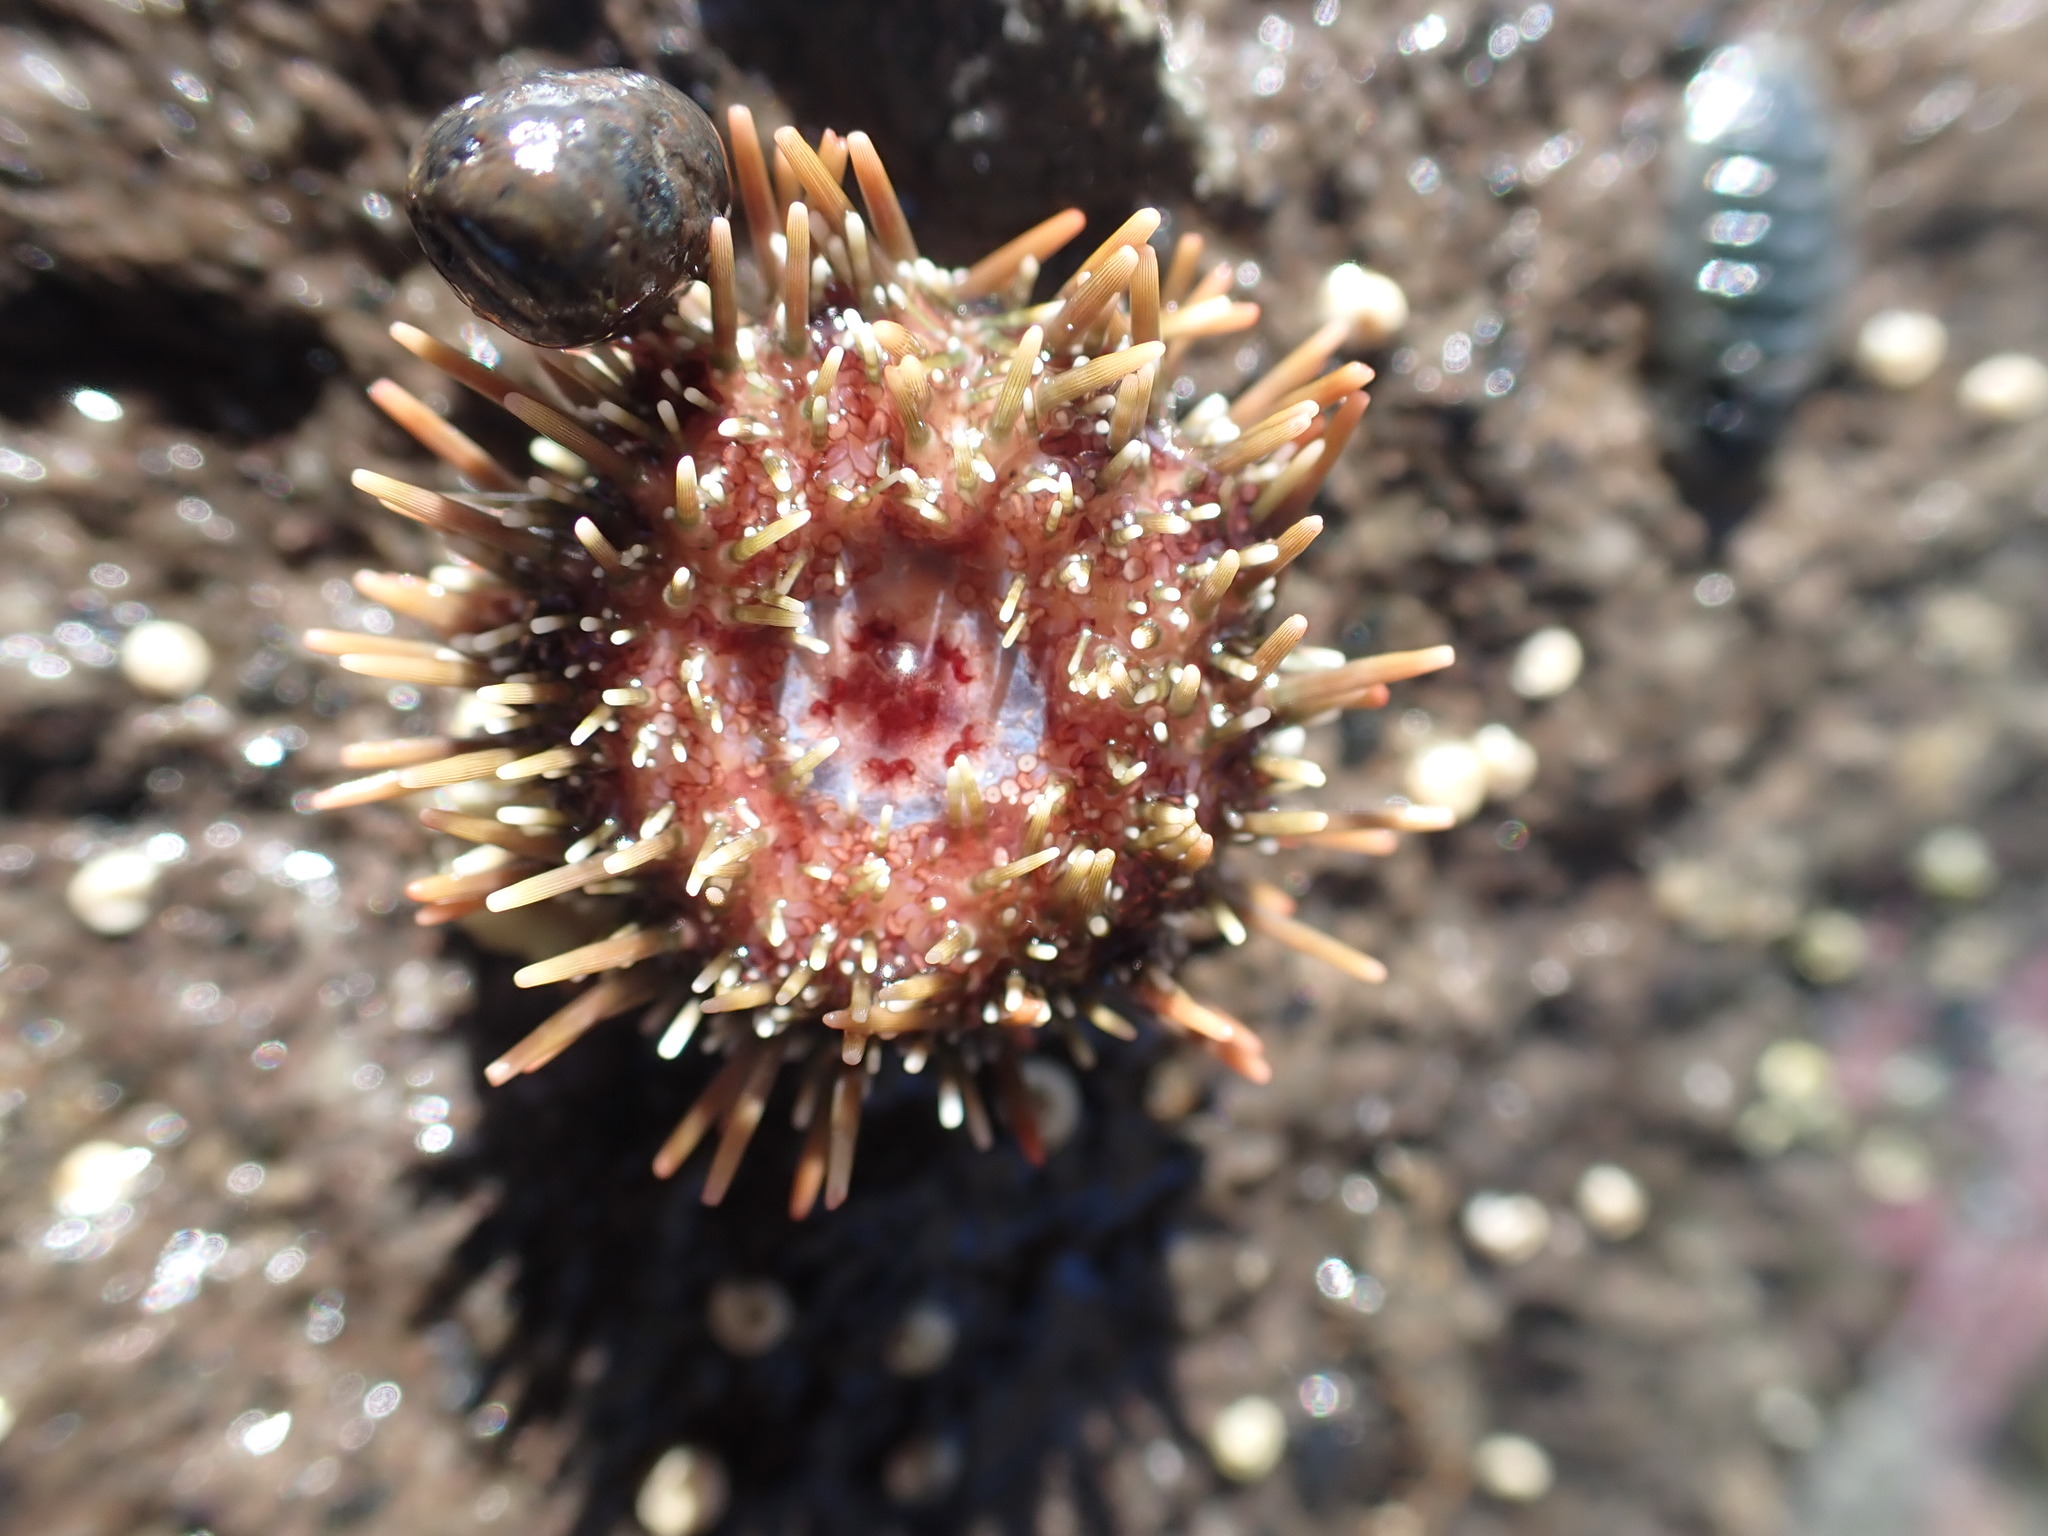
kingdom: Animalia
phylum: Echinodermata
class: Echinoidea
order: Camarodonta
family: Echinometridae
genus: Evechinus
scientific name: Evechinus chloroticus
